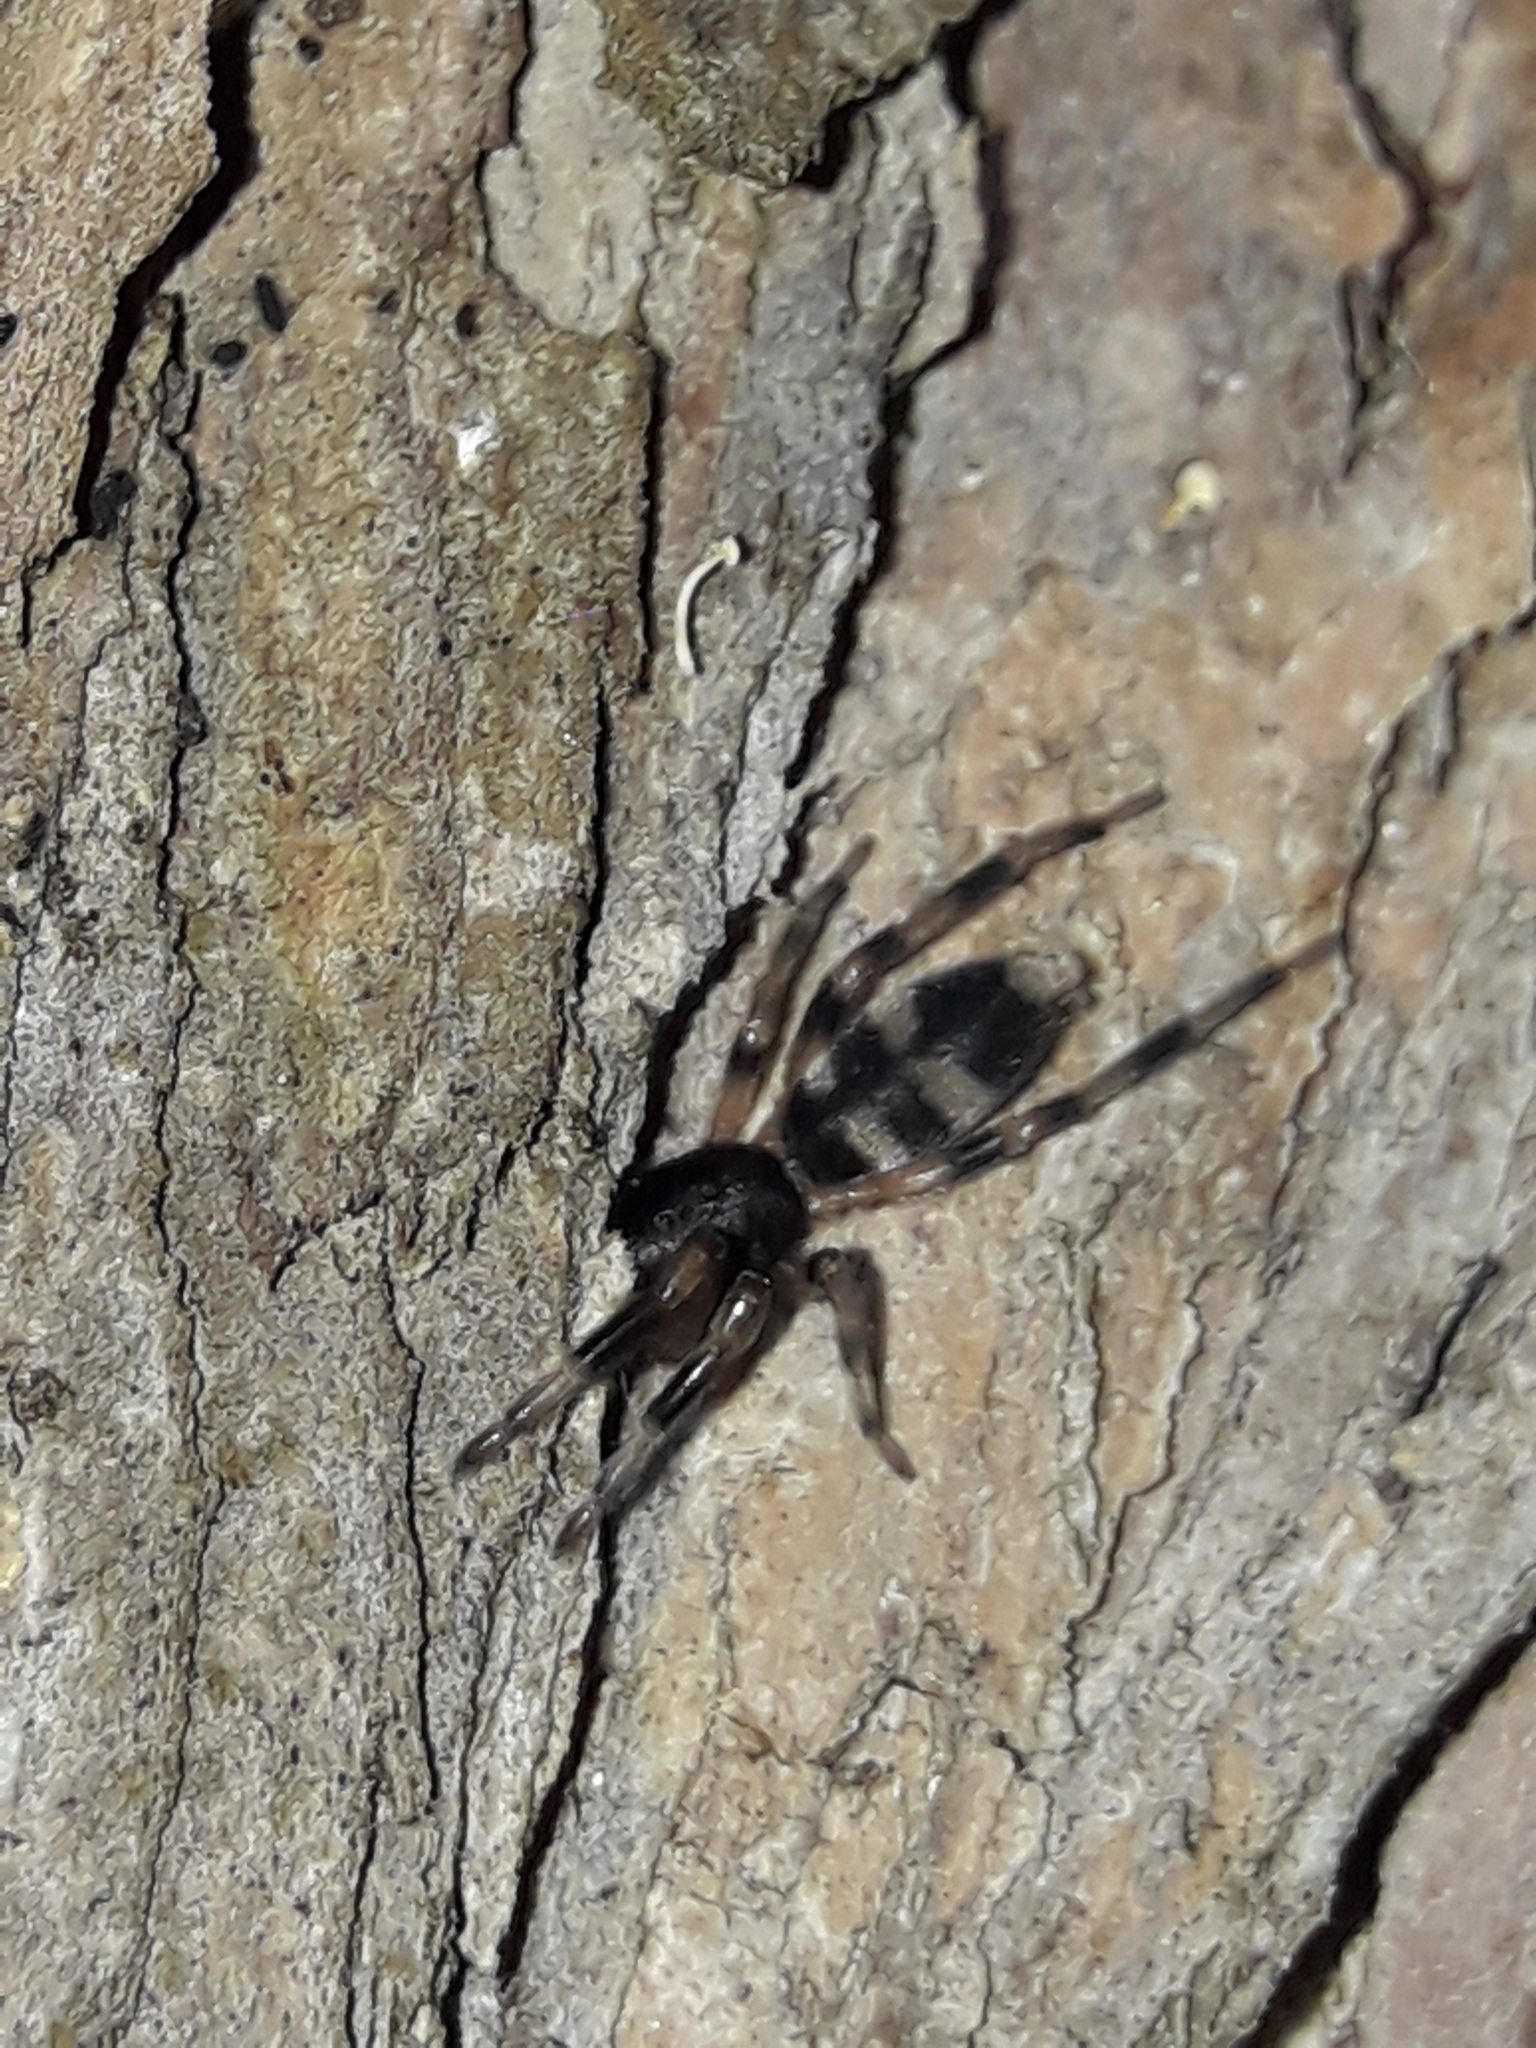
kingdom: Animalia
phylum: Arthropoda
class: Arachnida
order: Araneae
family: Lamponidae
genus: Lampona
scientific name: Lampona murina
